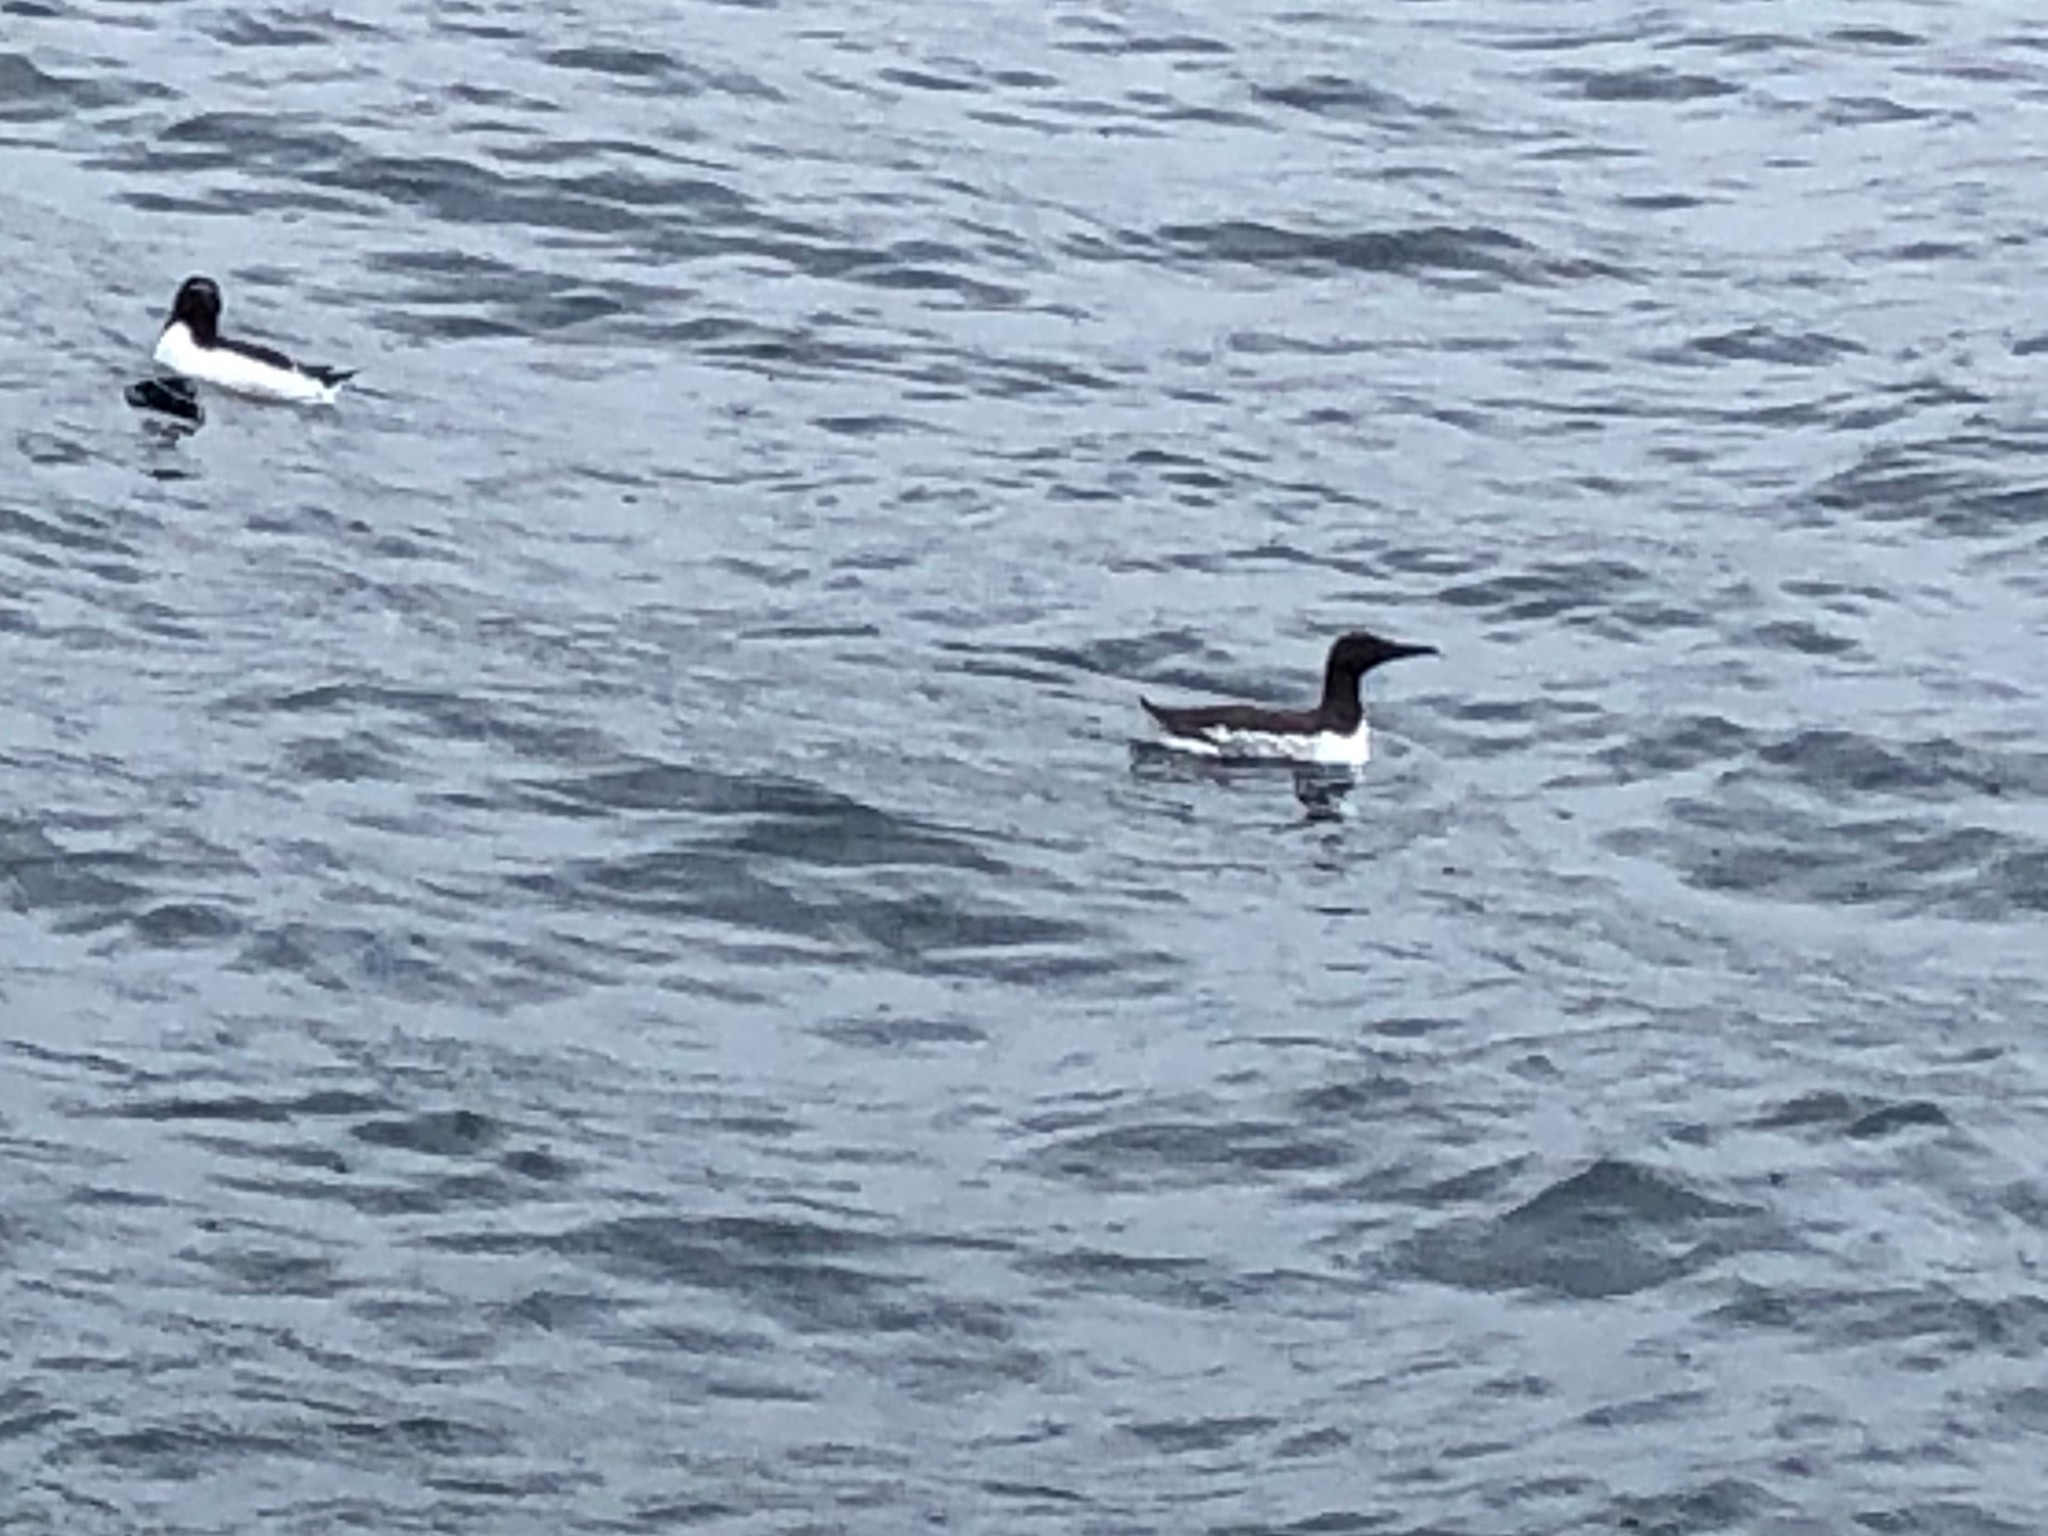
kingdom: Animalia
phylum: Chordata
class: Aves
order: Charadriiformes
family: Alcidae
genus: Uria
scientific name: Uria aalge
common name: Common murre
